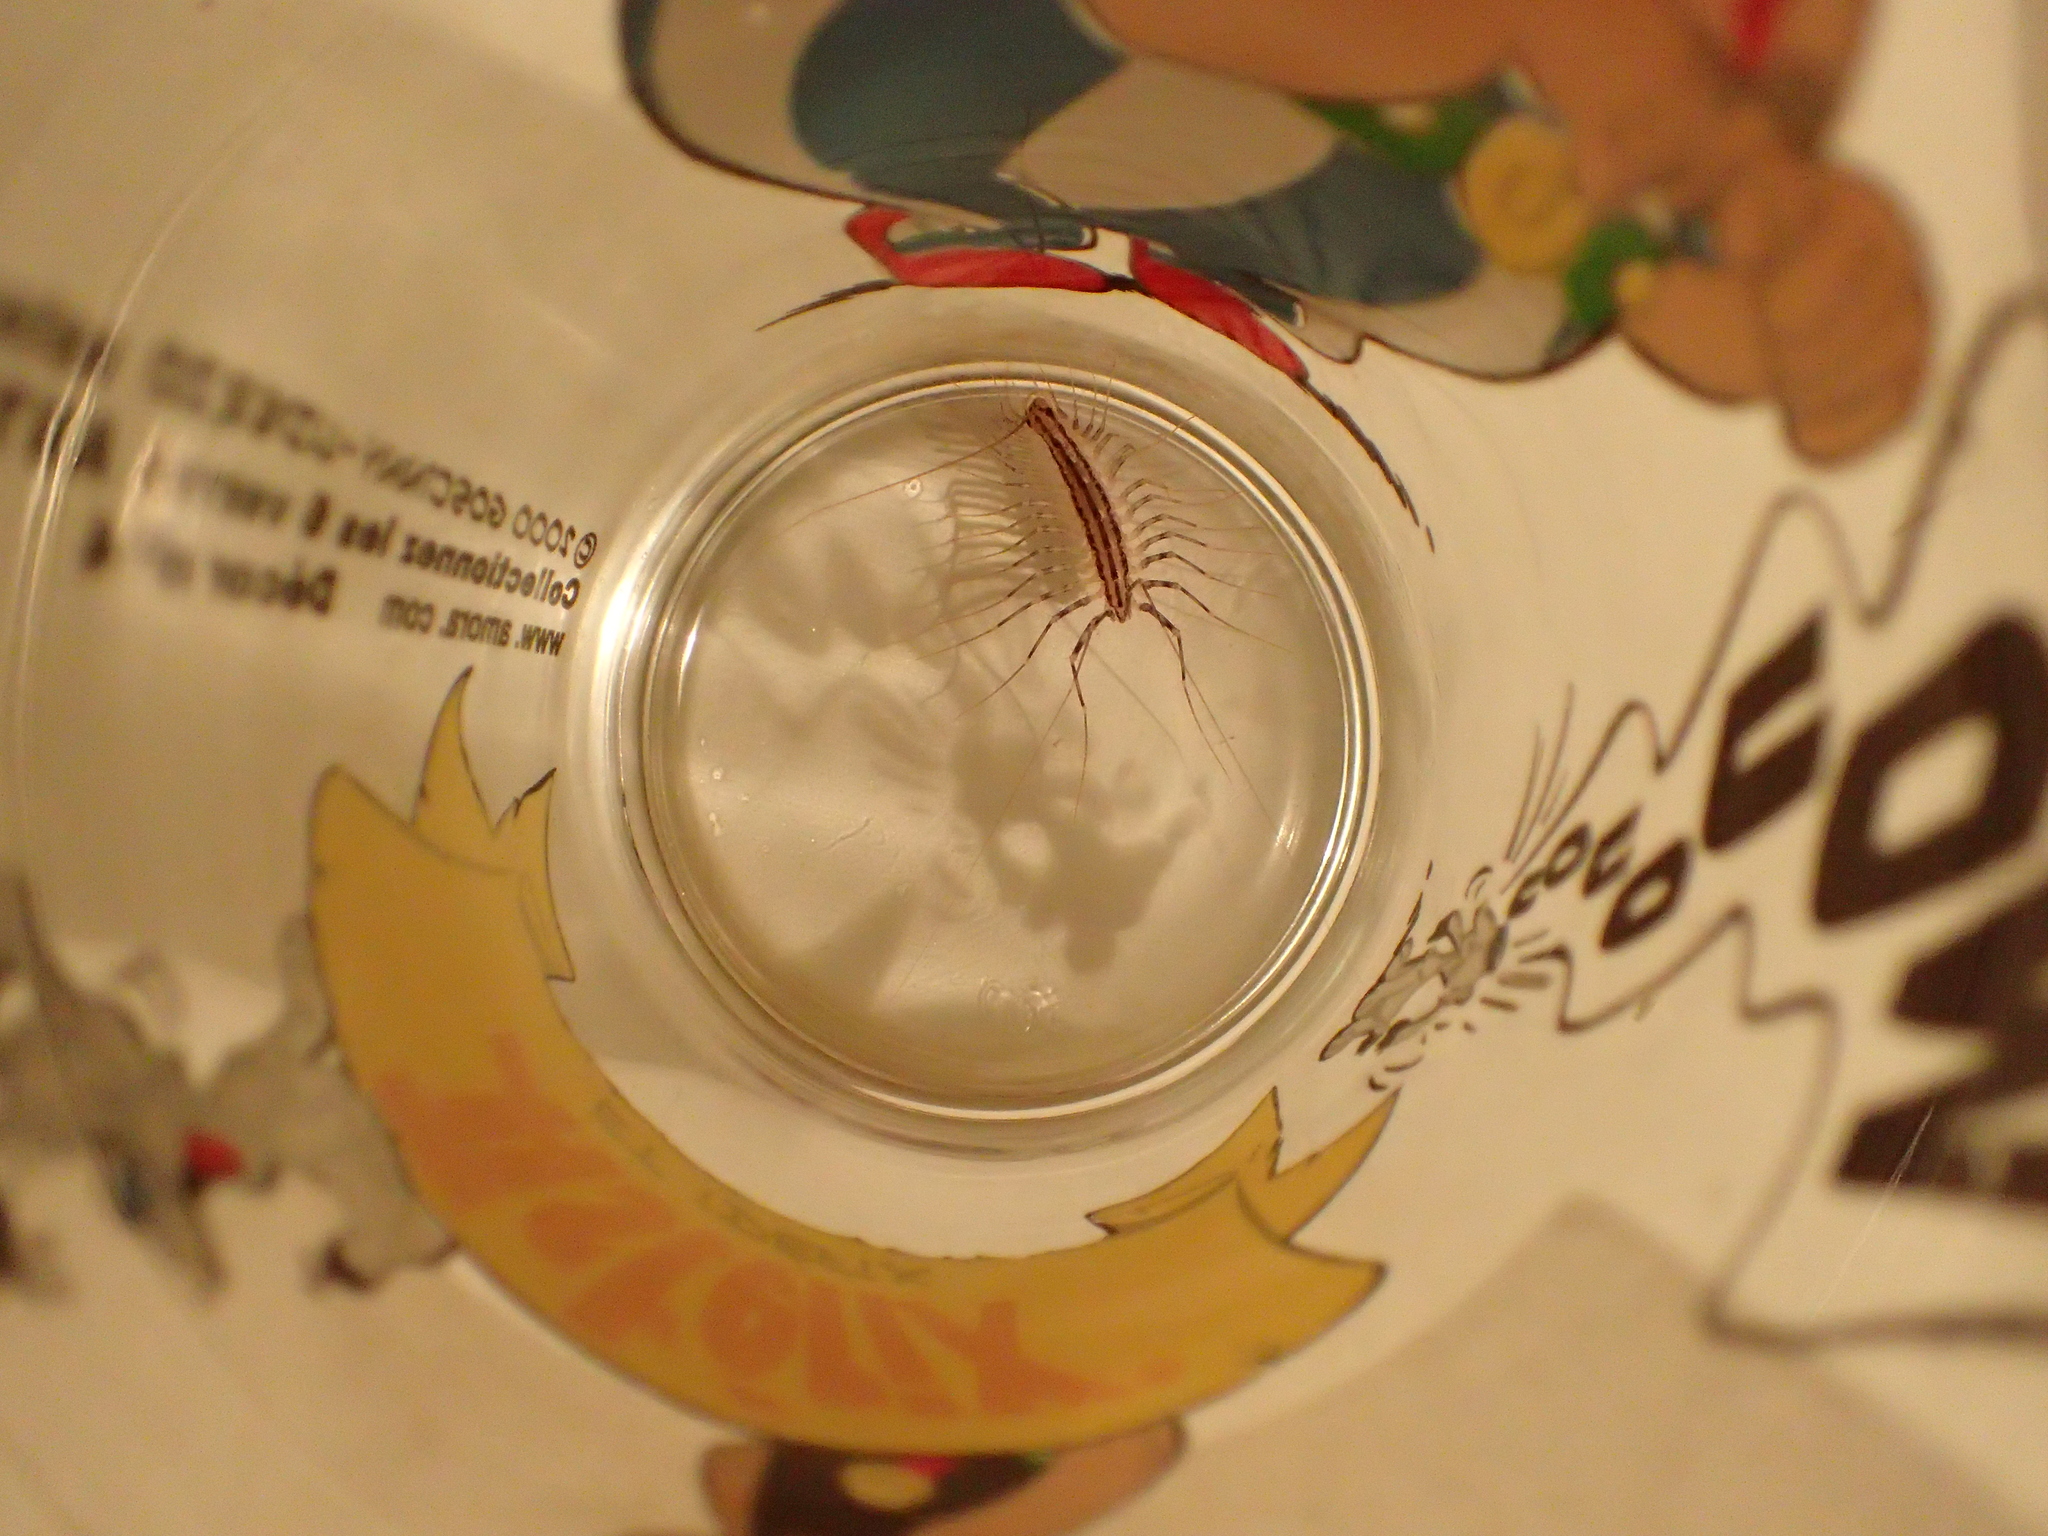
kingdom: Animalia
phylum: Arthropoda
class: Chilopoda
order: Scutigeromorpha
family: Scutigeridae
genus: Scutigera
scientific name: Scutigera coleoptrata
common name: House centipede
